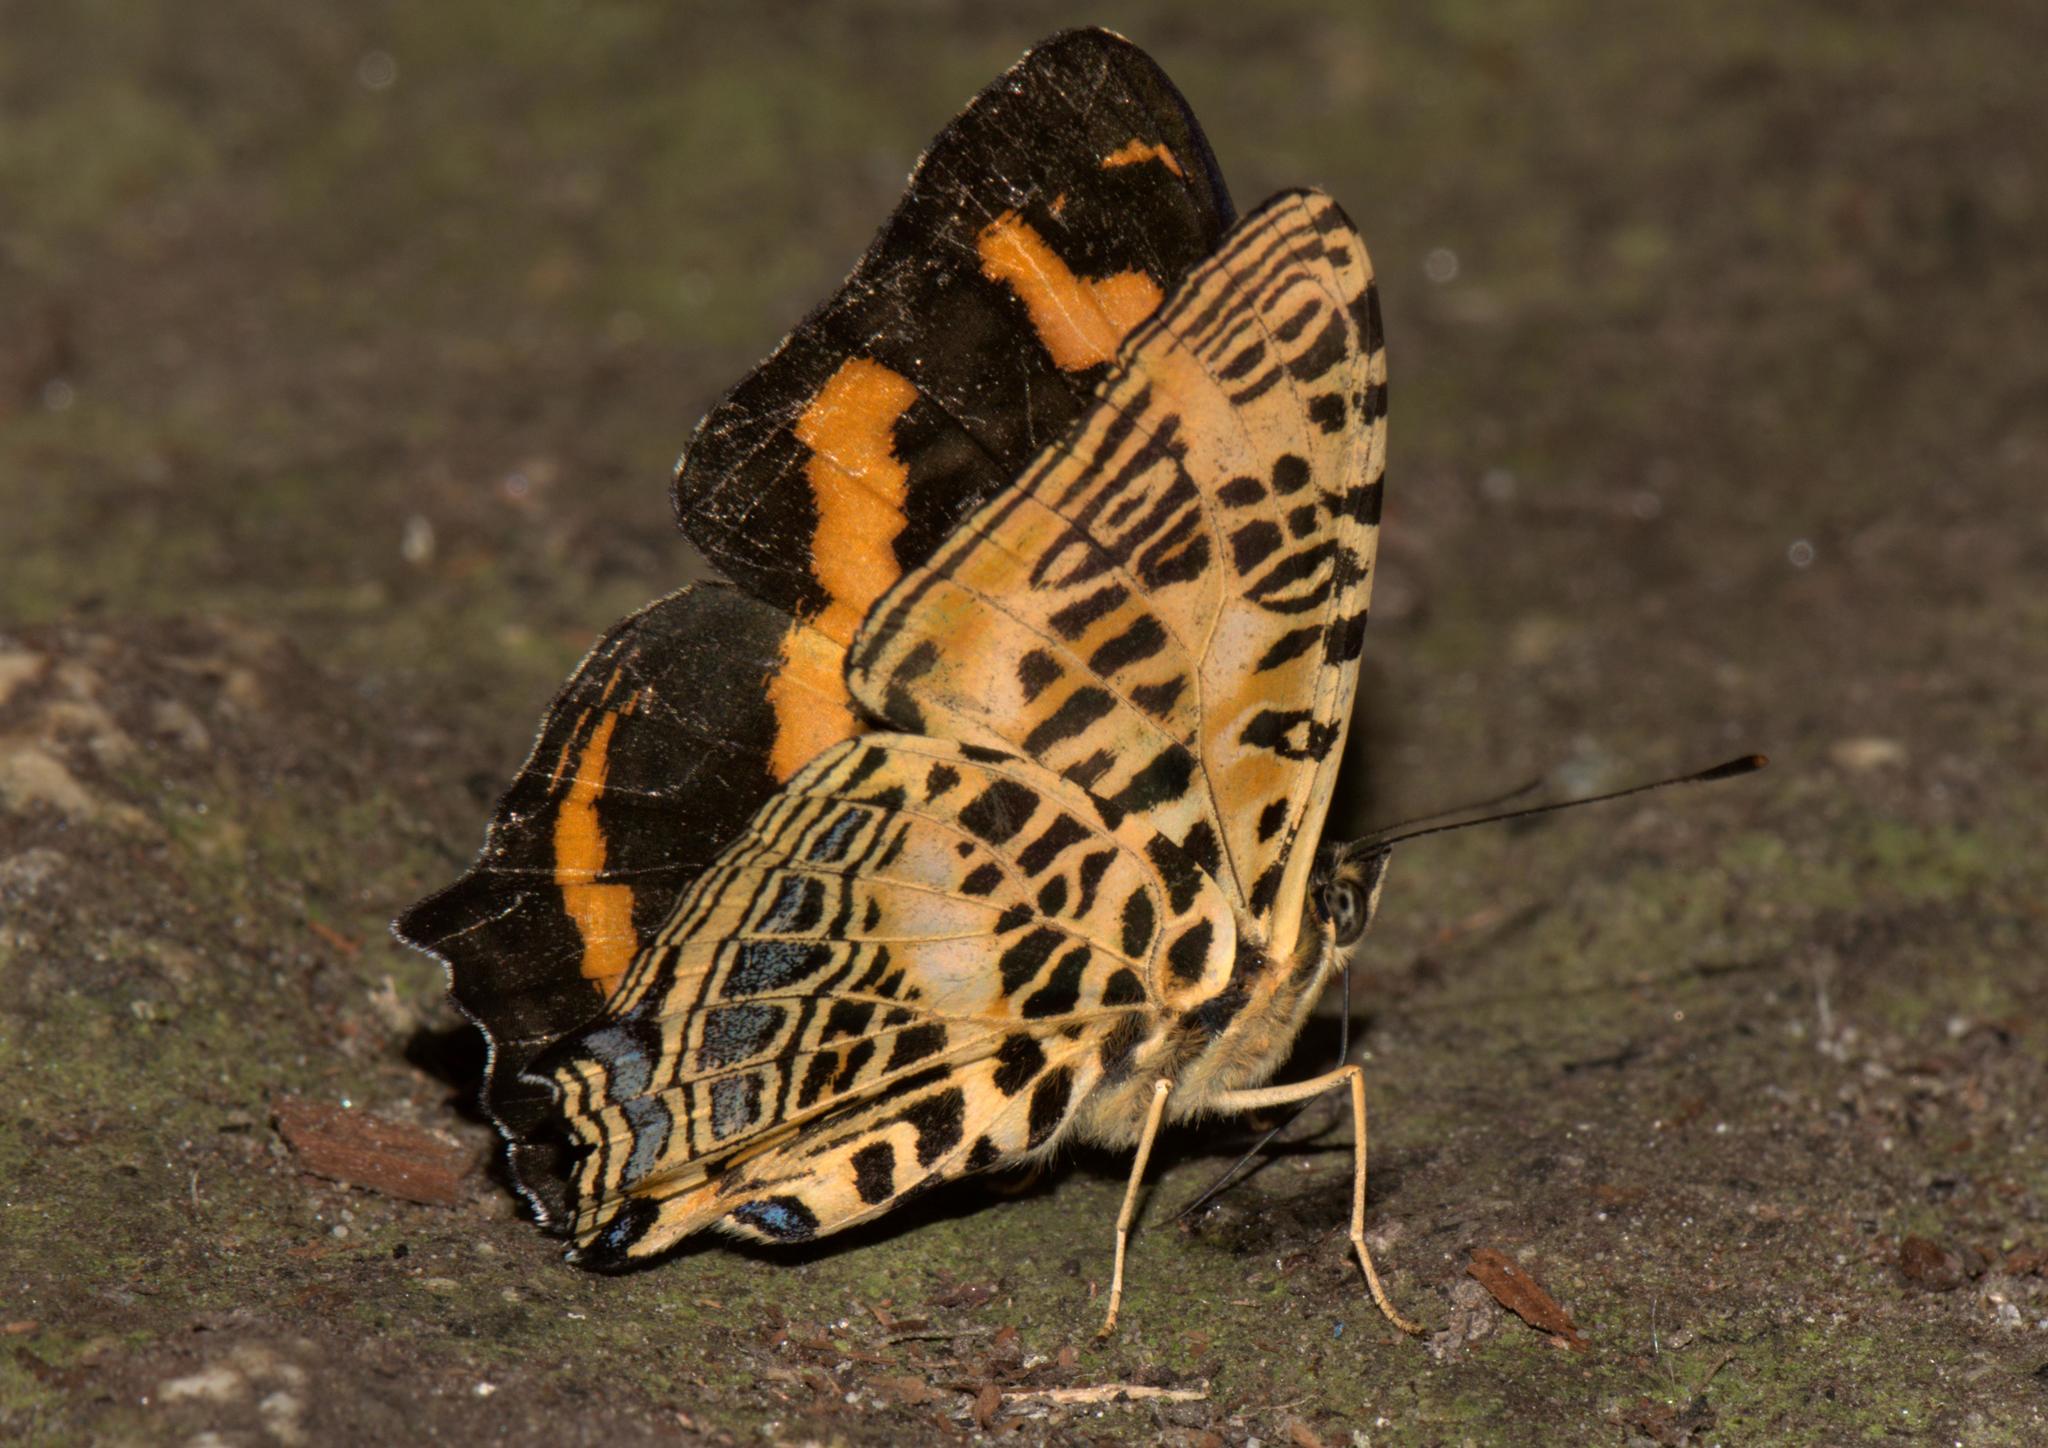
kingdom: Animalia
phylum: Arthropoda
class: Insecta
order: Lepidoptera
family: Nymphalidae
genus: Symbrenthia
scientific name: Symbrenthia niphanda
